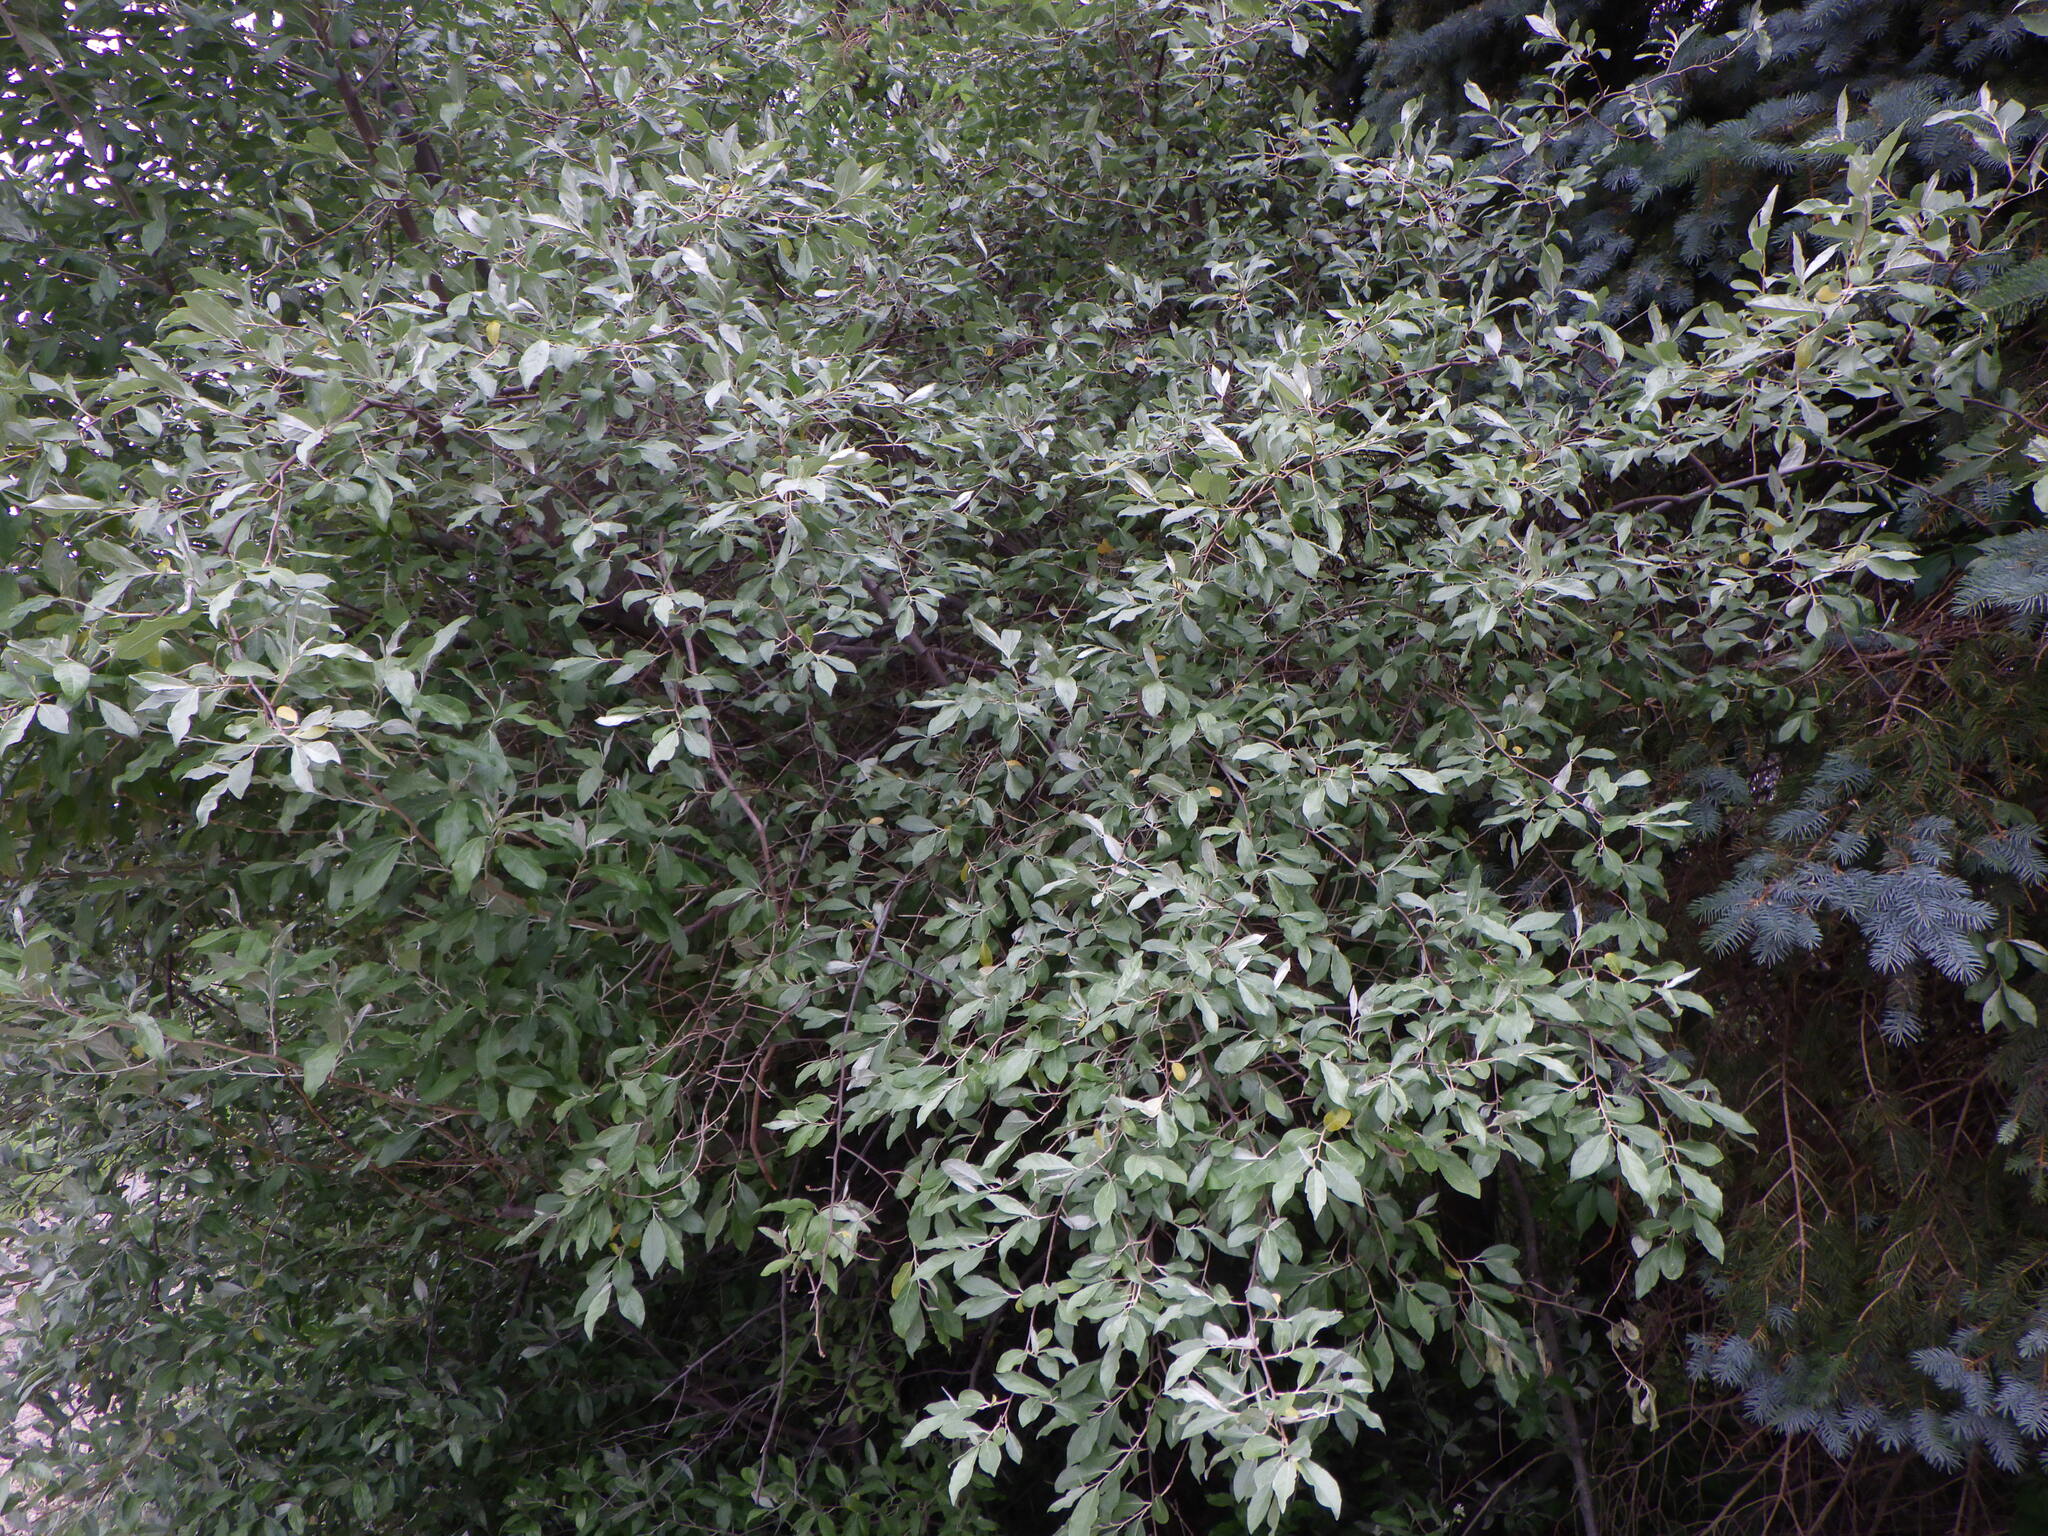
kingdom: Plantae
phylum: Tracheophyta
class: Magnoliopsida
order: Rosales
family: Elaeagnaceae
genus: Elaeagnus
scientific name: Elaeagnus umbellata
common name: Autumn olive
